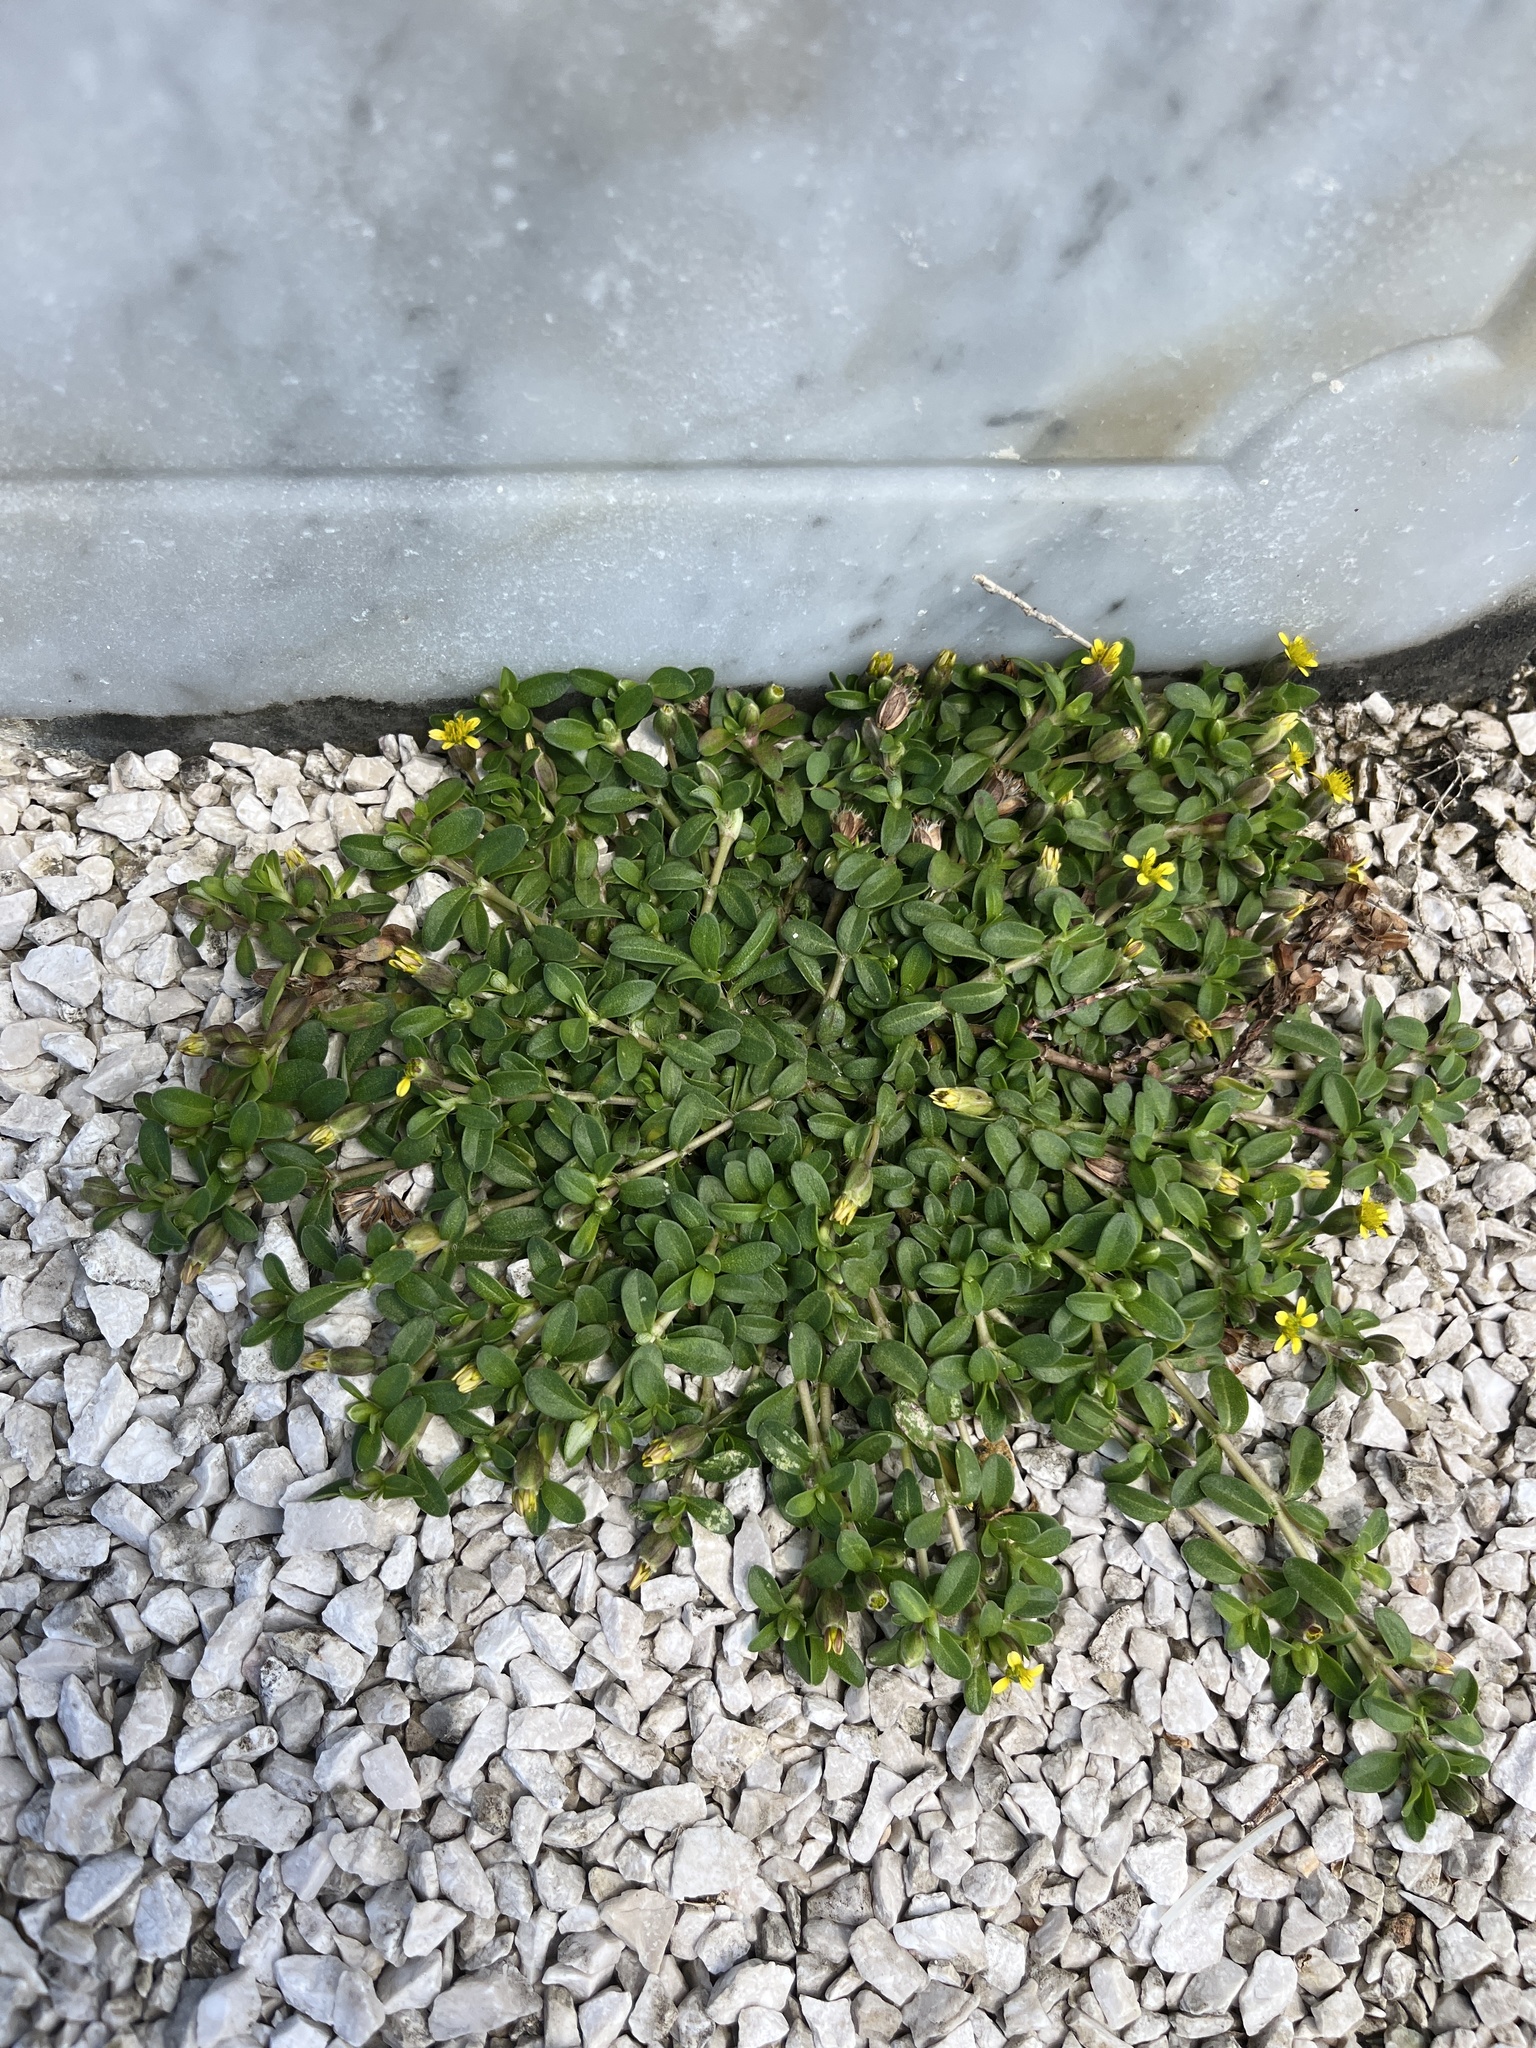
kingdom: Plantae
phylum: Tracheophyta
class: Magnoliopsida
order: Asterales
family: Asteraceae
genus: Pectis
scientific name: Pectis humifusa
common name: Yerba de san juan
